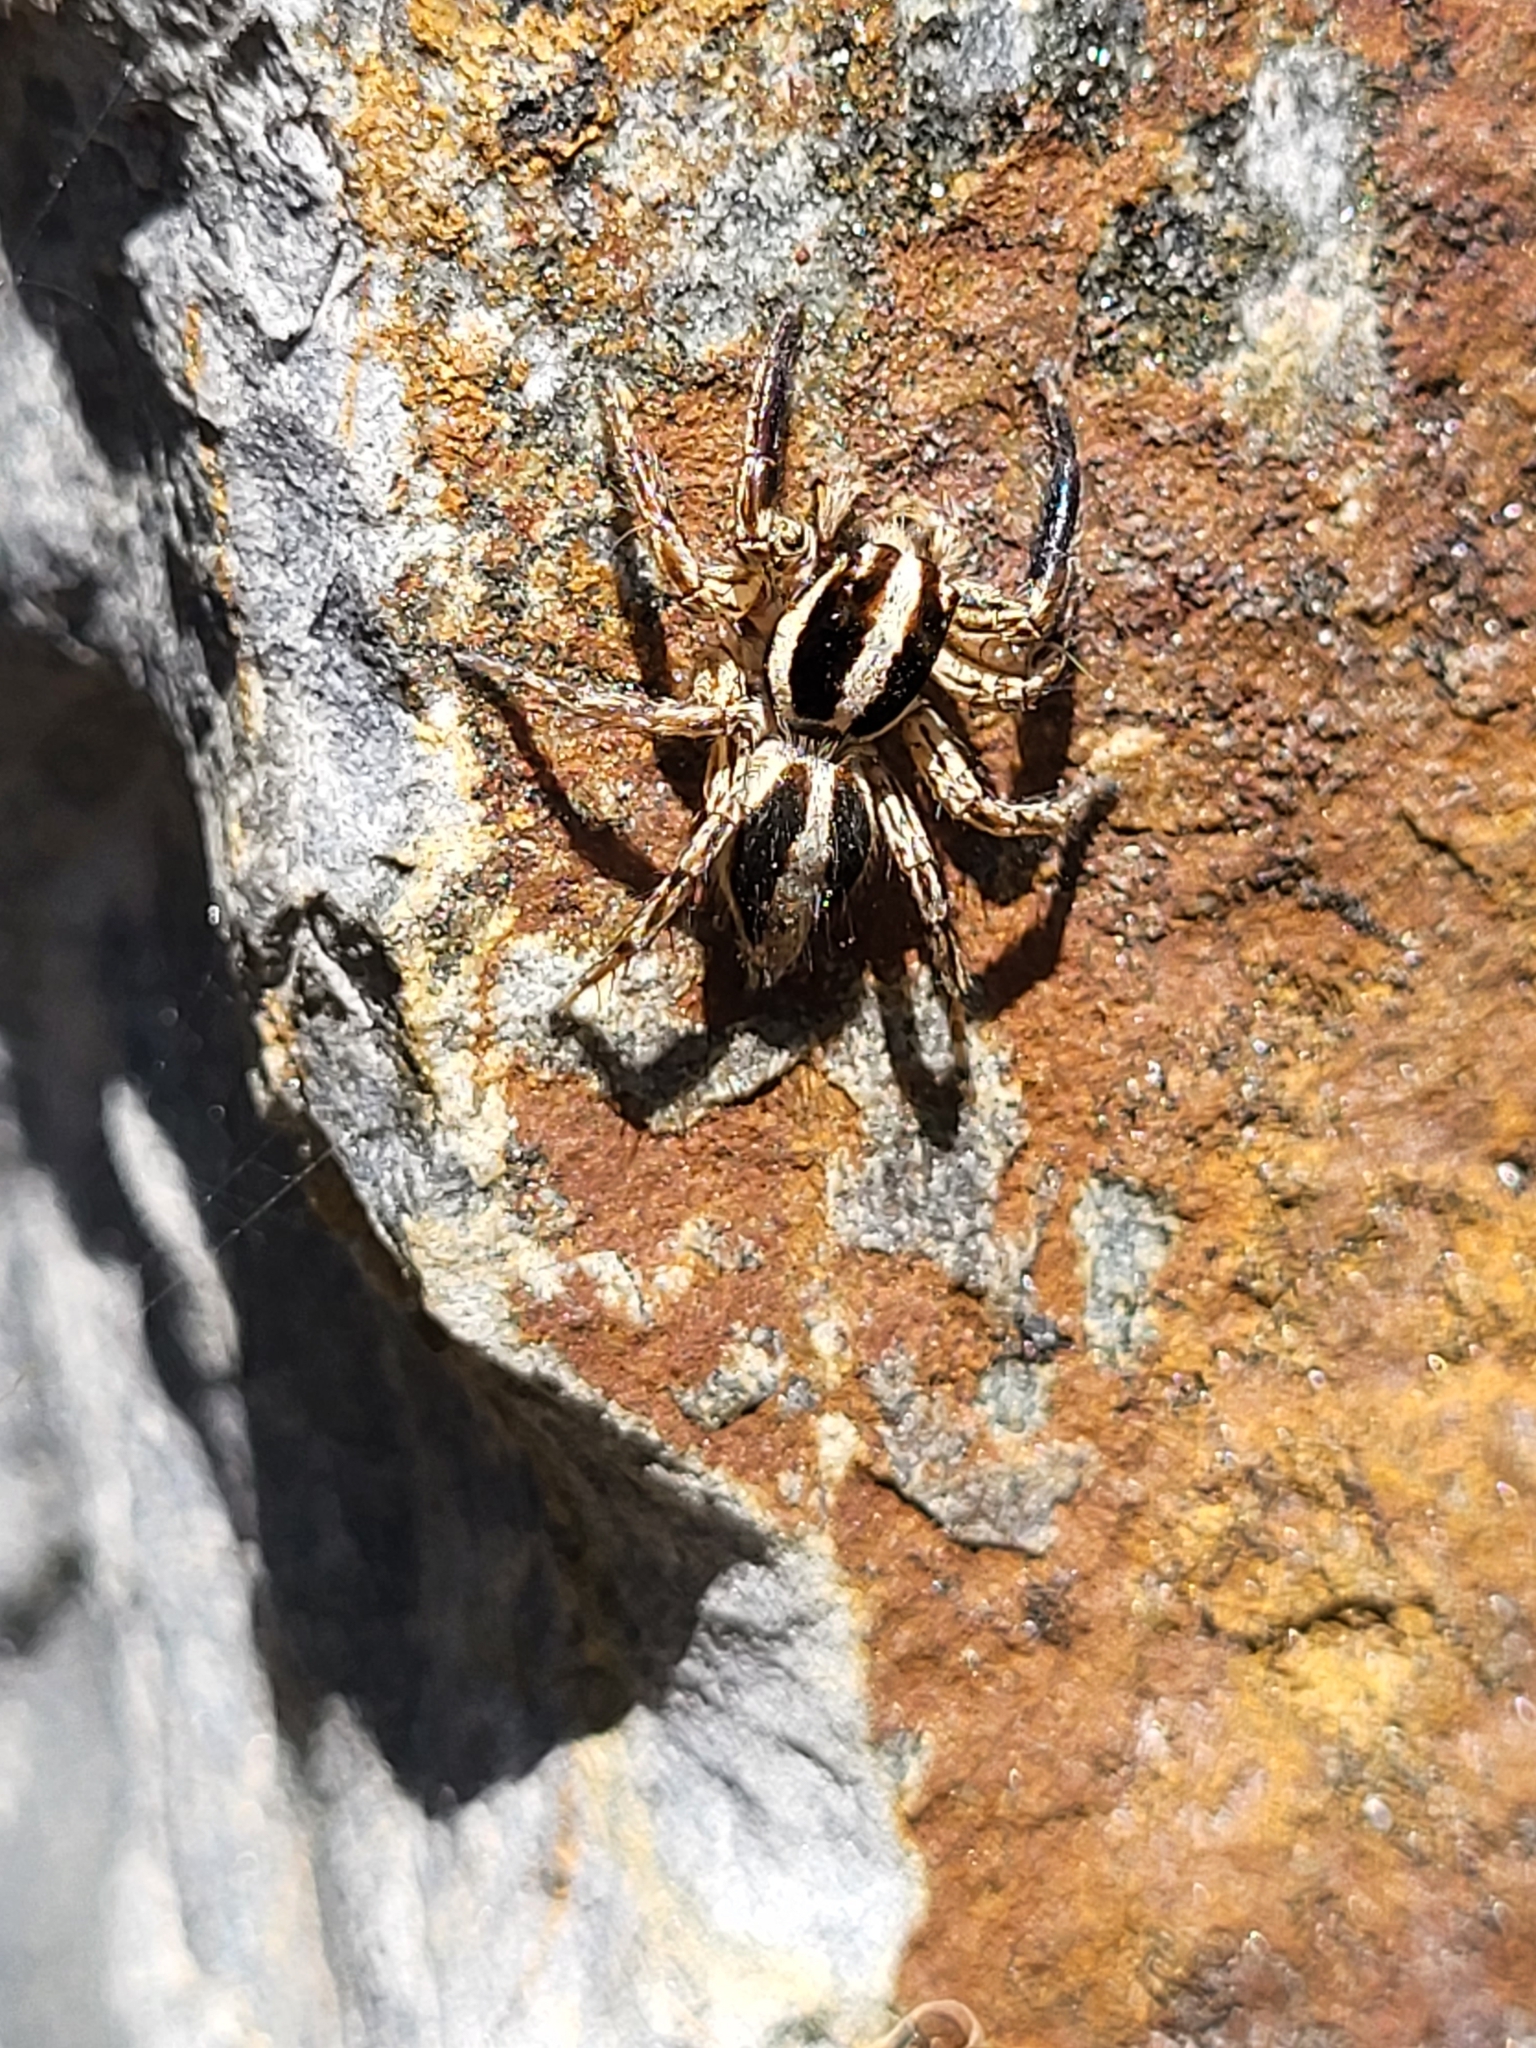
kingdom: Animalia
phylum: Arthropoda
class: Arachnida
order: Araneae
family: Salticidae
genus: Plexippus
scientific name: Plexippus paykulli
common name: Pantropical jumper
